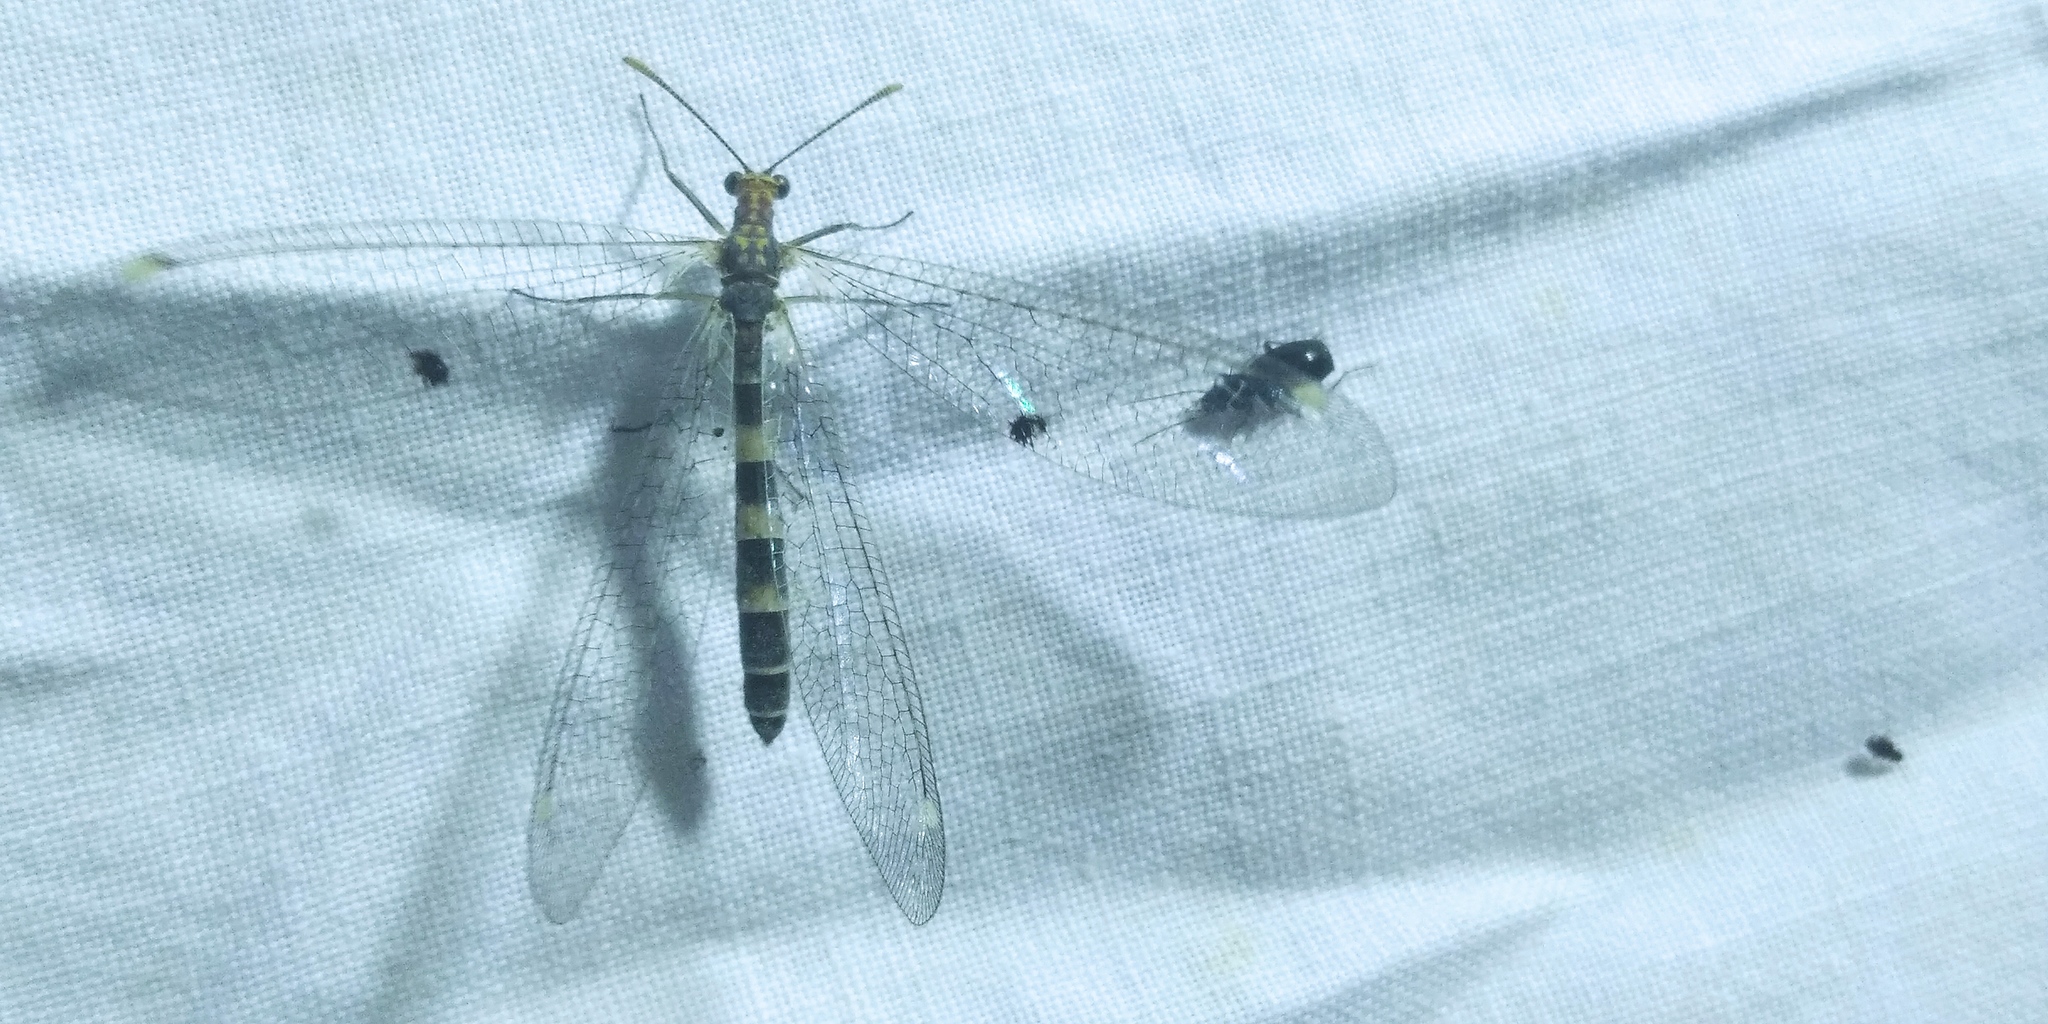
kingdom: Animalia
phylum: Arthropoda
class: Insecta
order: Neuroptera
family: Myrmeleontidae
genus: Megistopus
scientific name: Megistopus flavicornis
